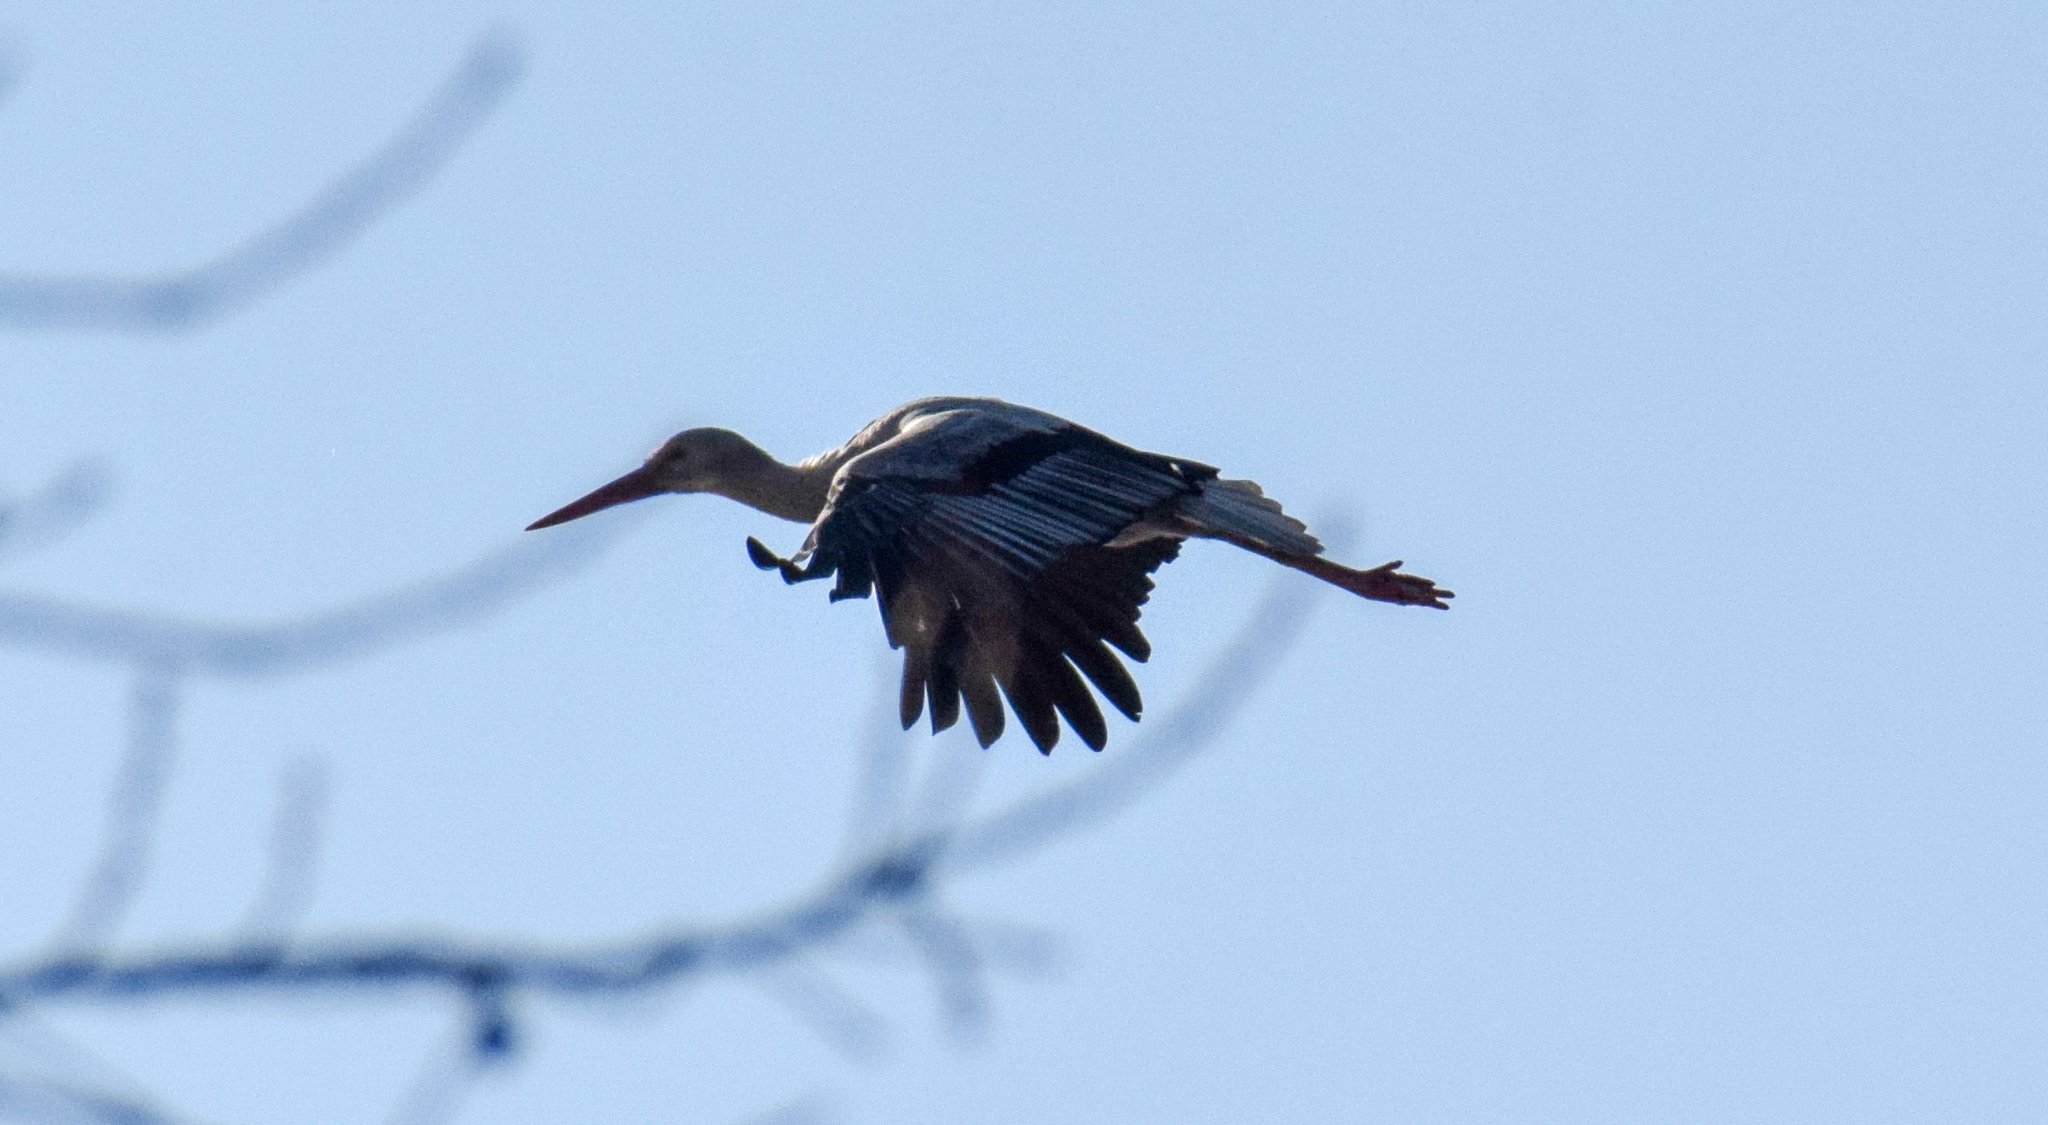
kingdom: Animalia
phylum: Chordata
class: Aves
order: Ciconiiformes
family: Ciconiidae
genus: Ciconia
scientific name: Ciconia ciconia
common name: White stork
